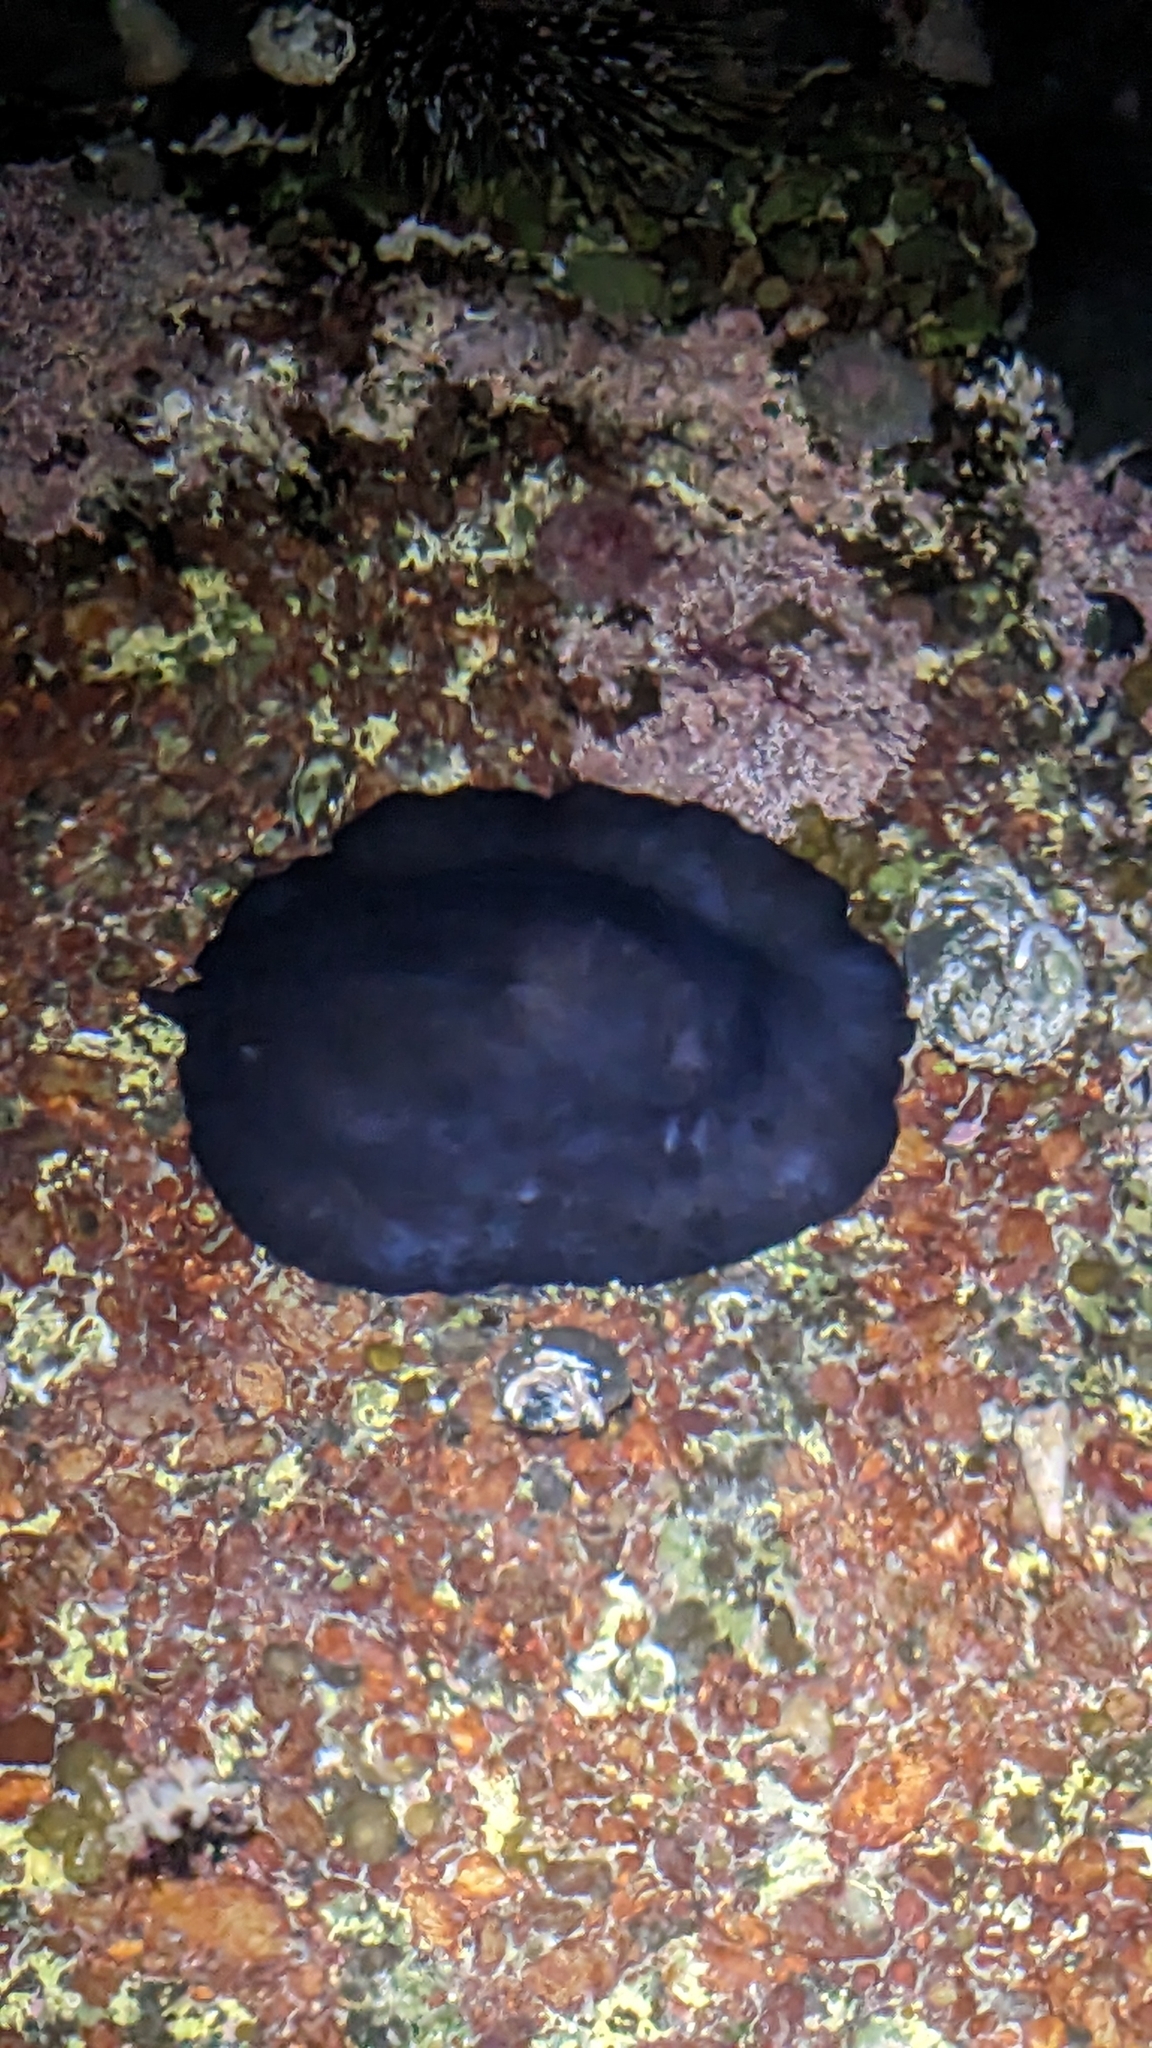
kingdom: Animalia
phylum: Mollusca
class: Gastropoda
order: Lepetellida
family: Fissurellidae
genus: Scutus
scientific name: Scutus breviculus
